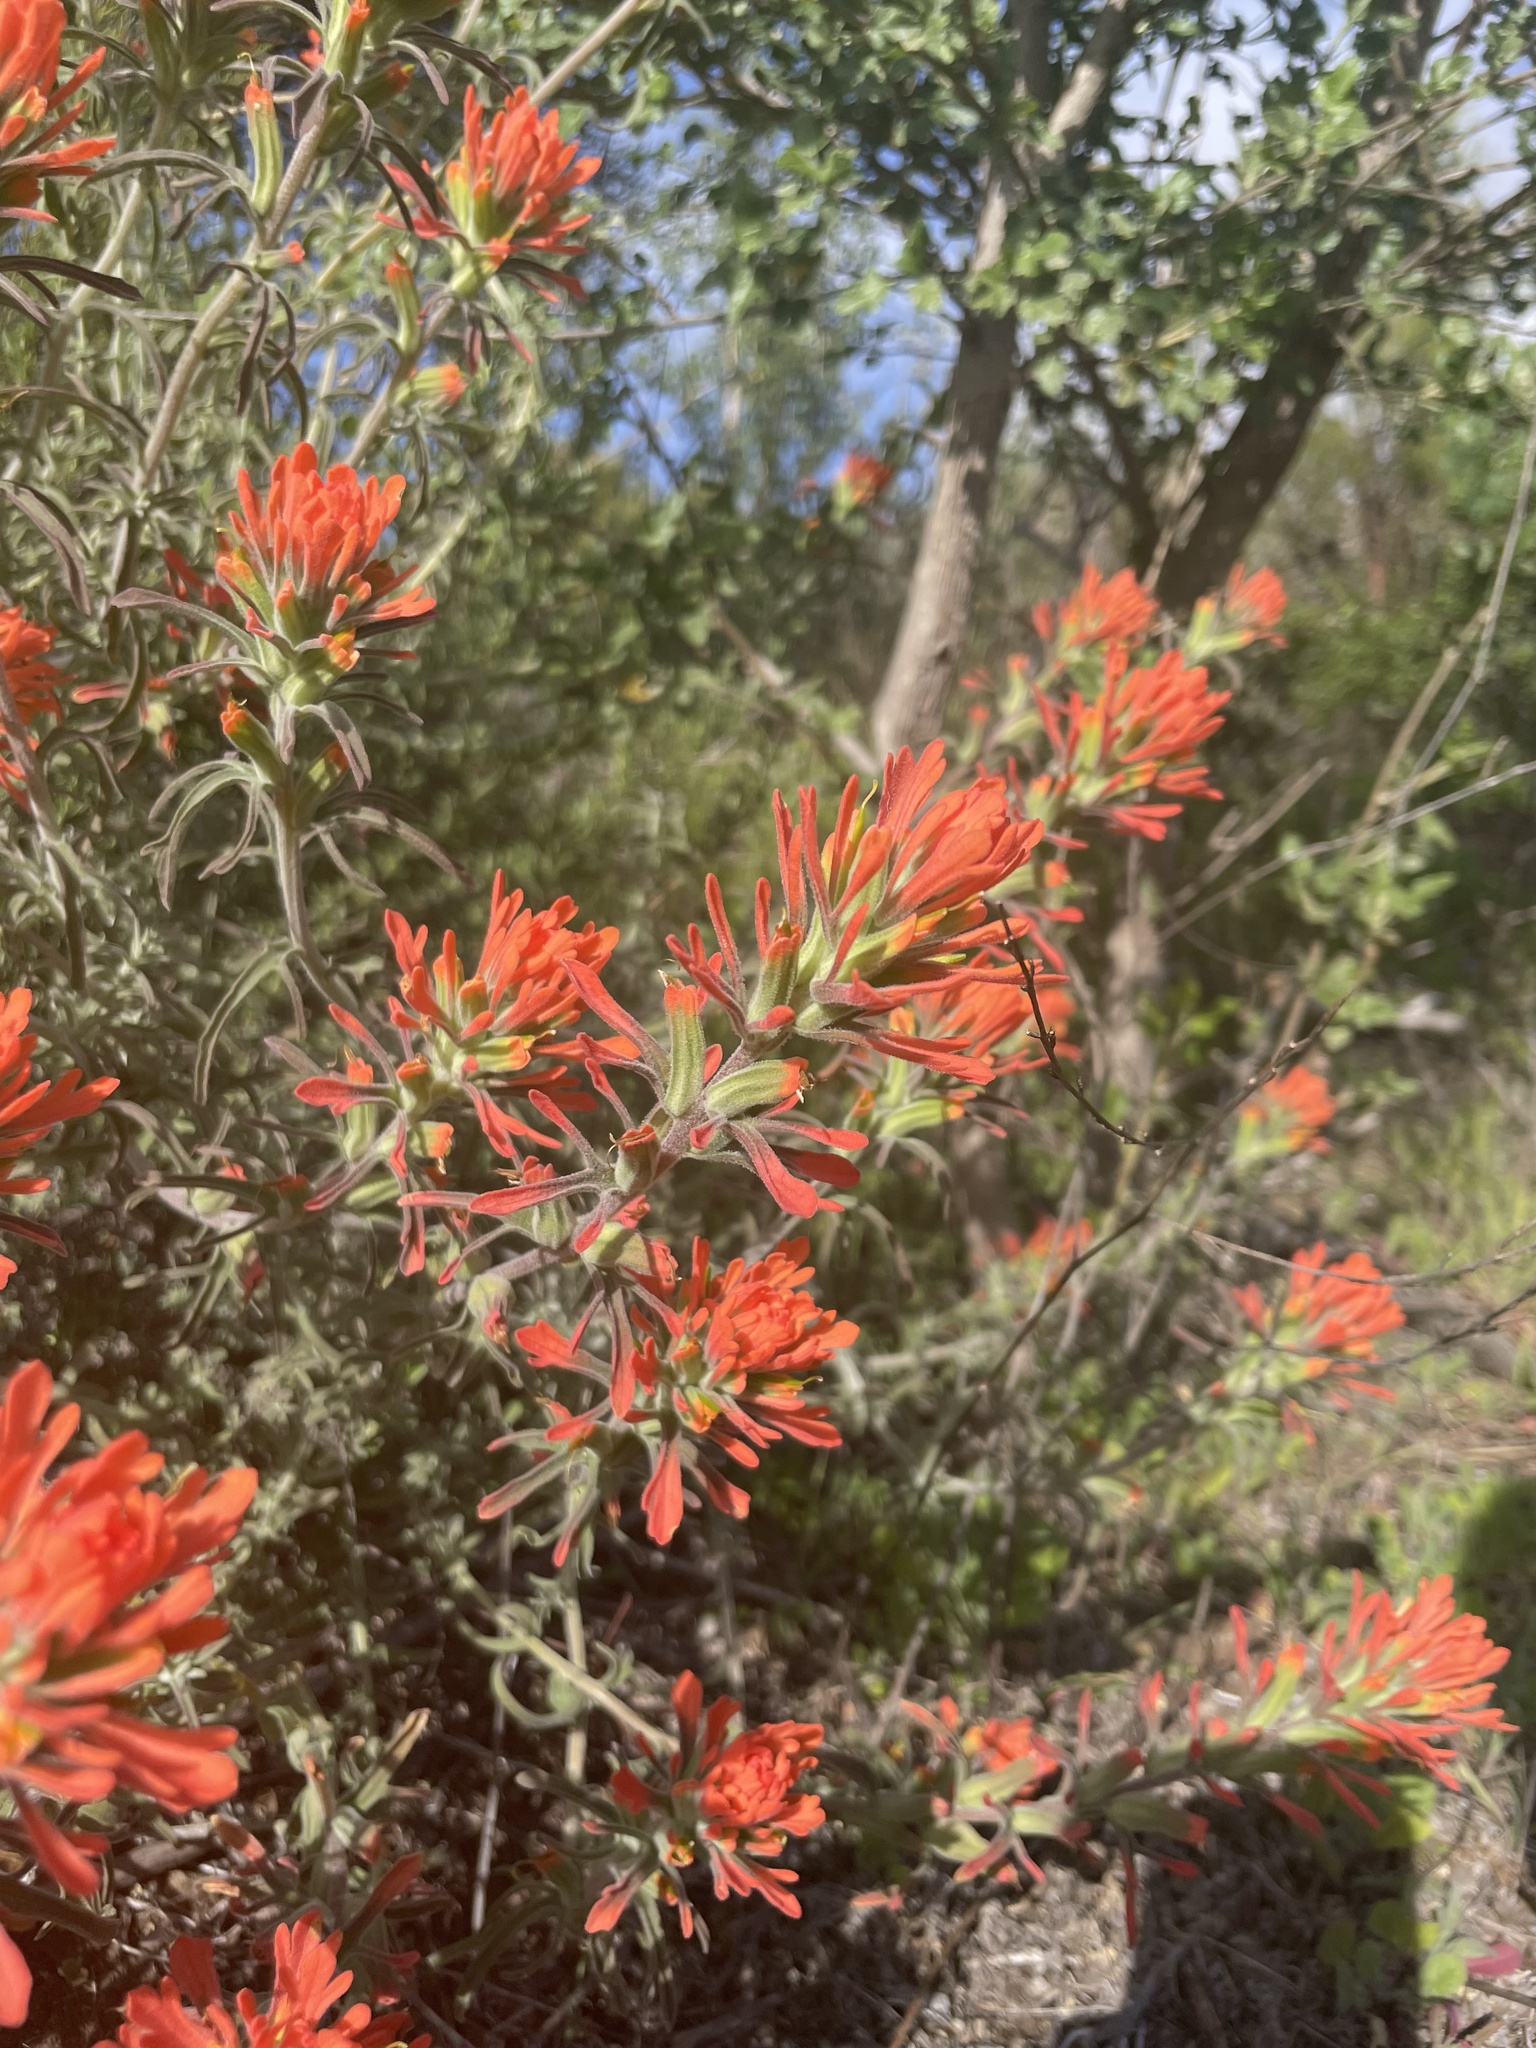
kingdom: Plantae
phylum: Tracheophyta
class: Magnoliopsida
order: Lamiales
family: Orobanchaceae
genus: Castilleja
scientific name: Castilleja foliolosa
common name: Woolly indian paintbrush
